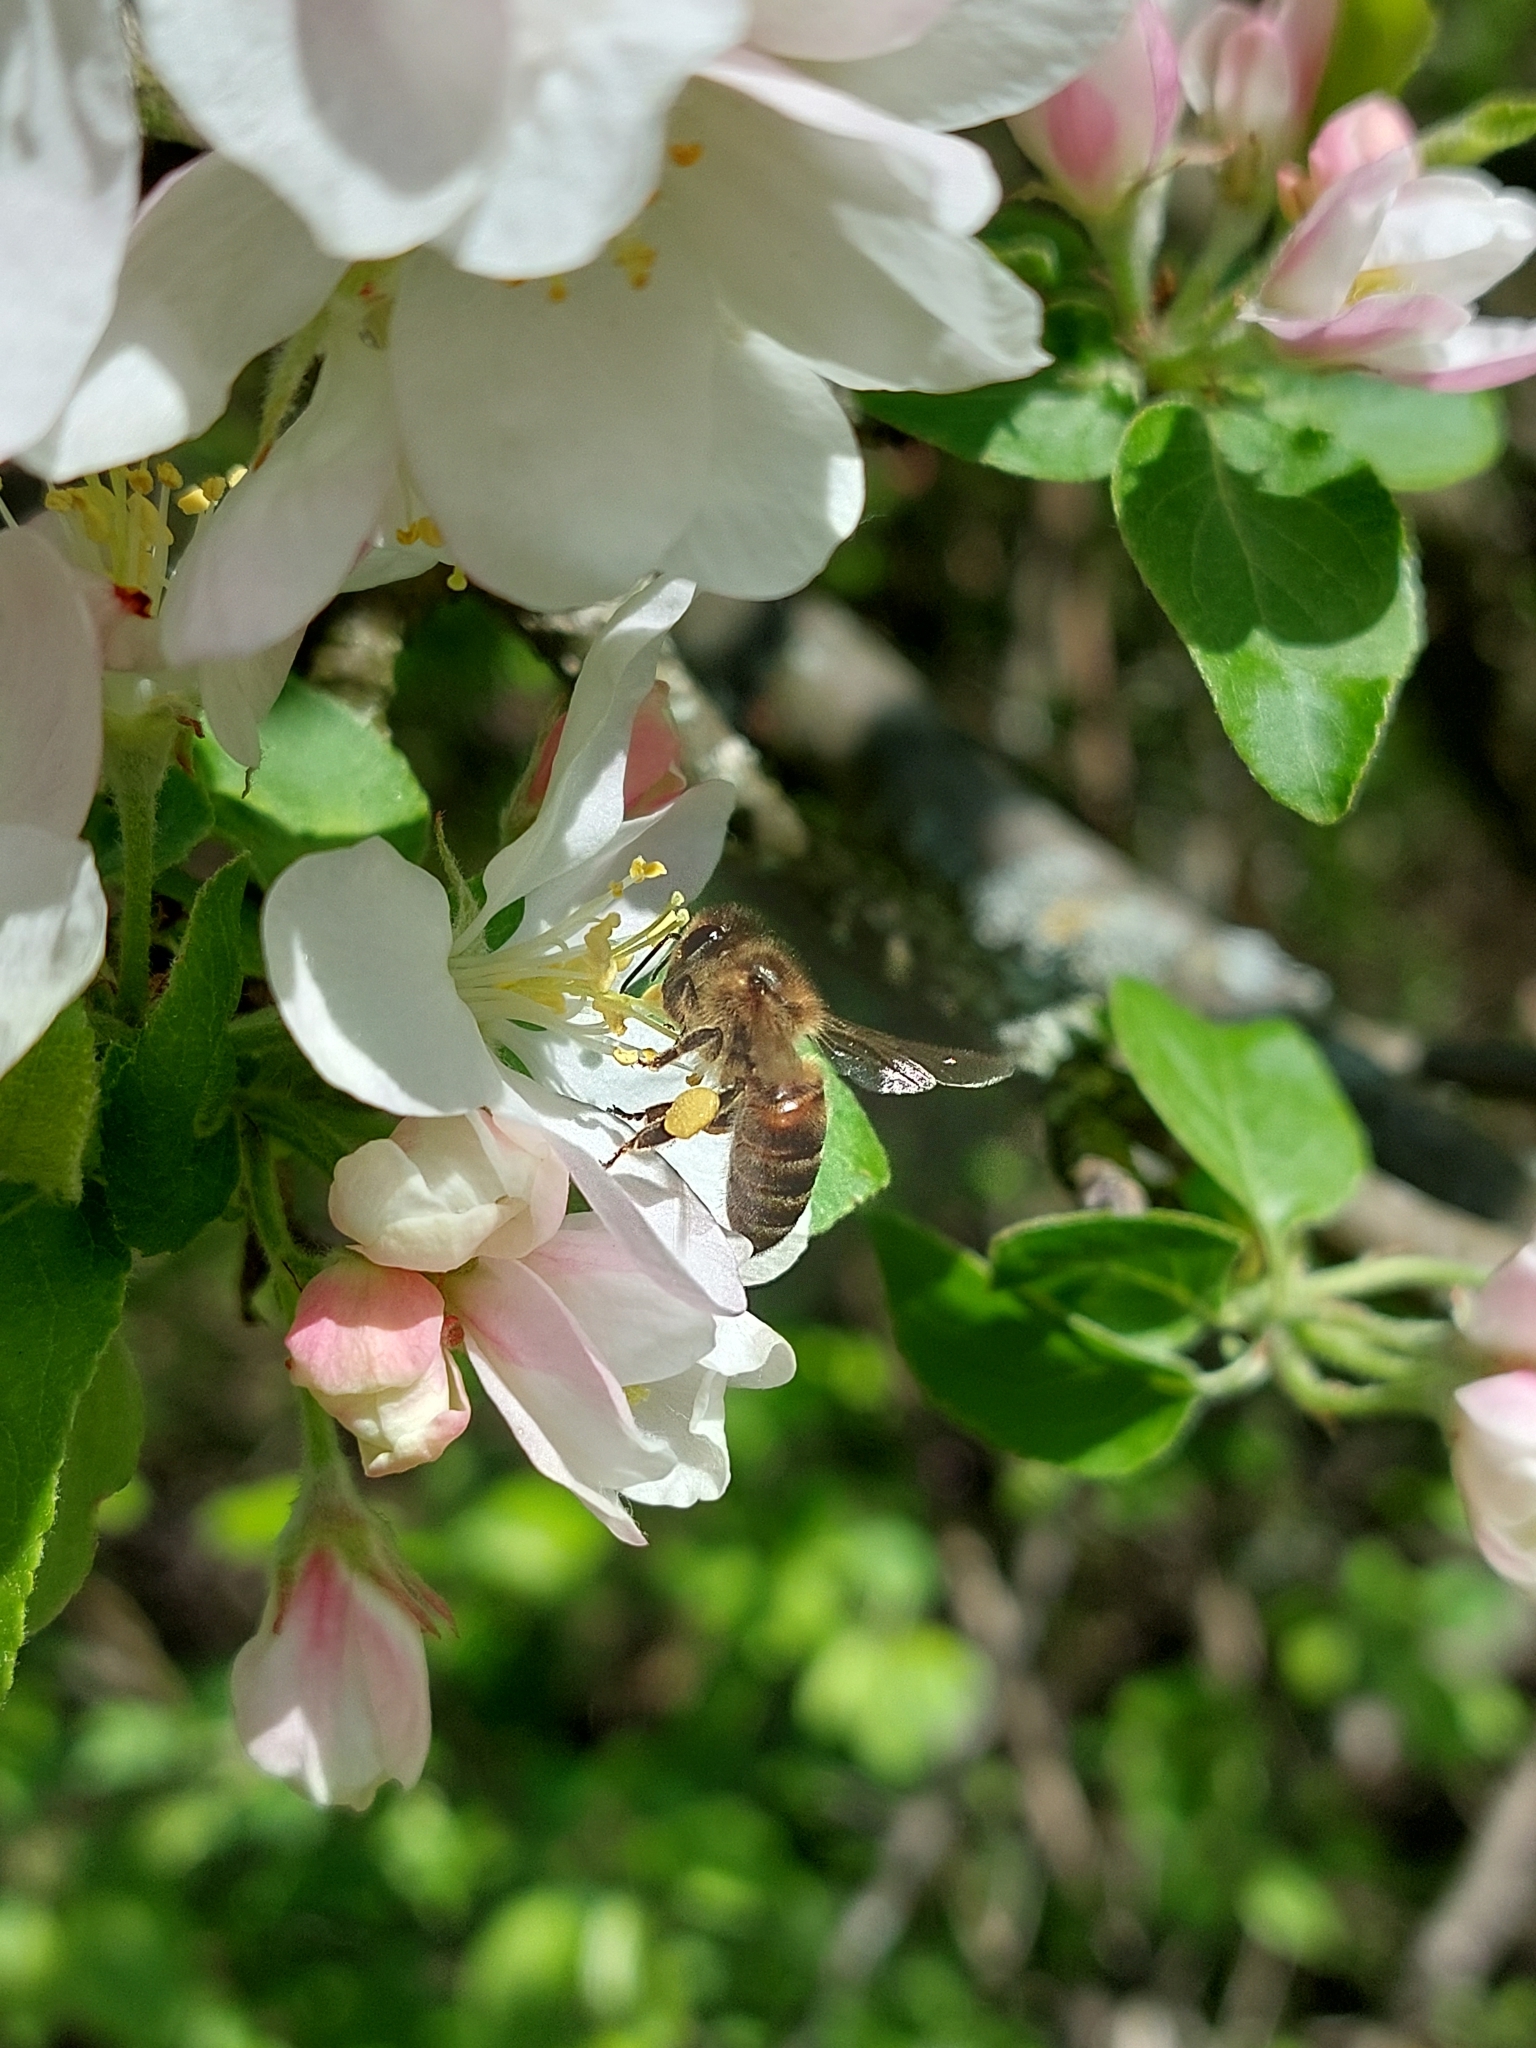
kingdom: Animalia
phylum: Arthropoda
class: Insecta
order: Hymenoptera
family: Apidae
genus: Apis
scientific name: Apis mellifera
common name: Honey bee
